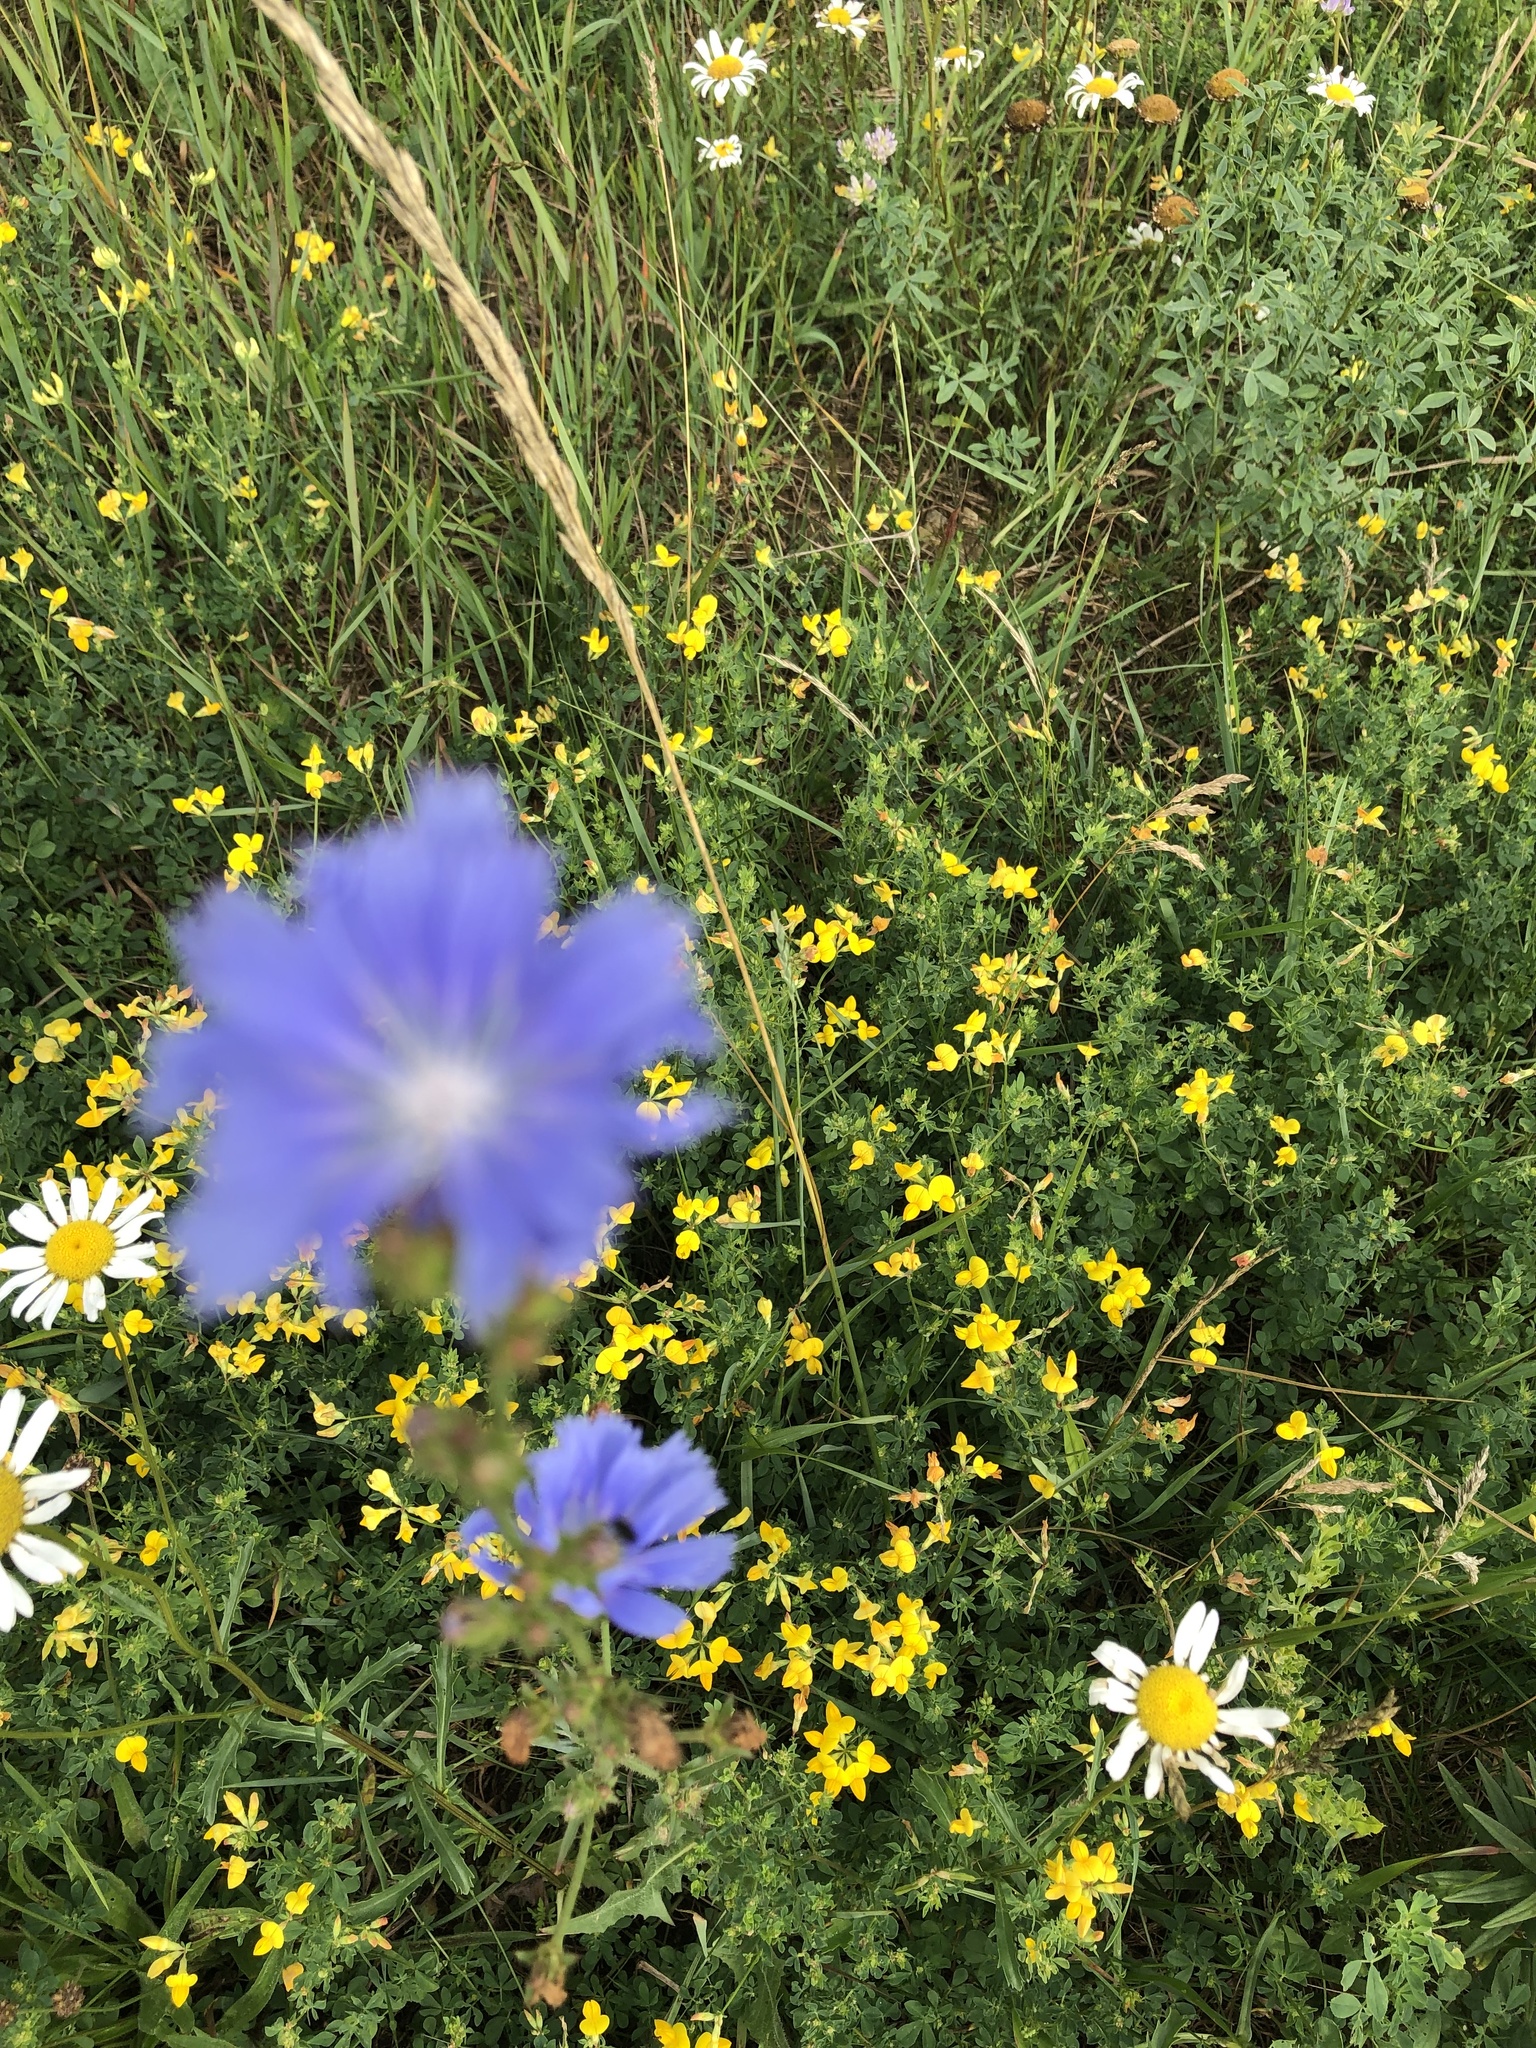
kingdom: Plantae
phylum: Tracheophyta
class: Magnoliopsida
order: Asterales
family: Asteraceae
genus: Cichorium
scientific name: Cichorium intybus
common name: Chicory
